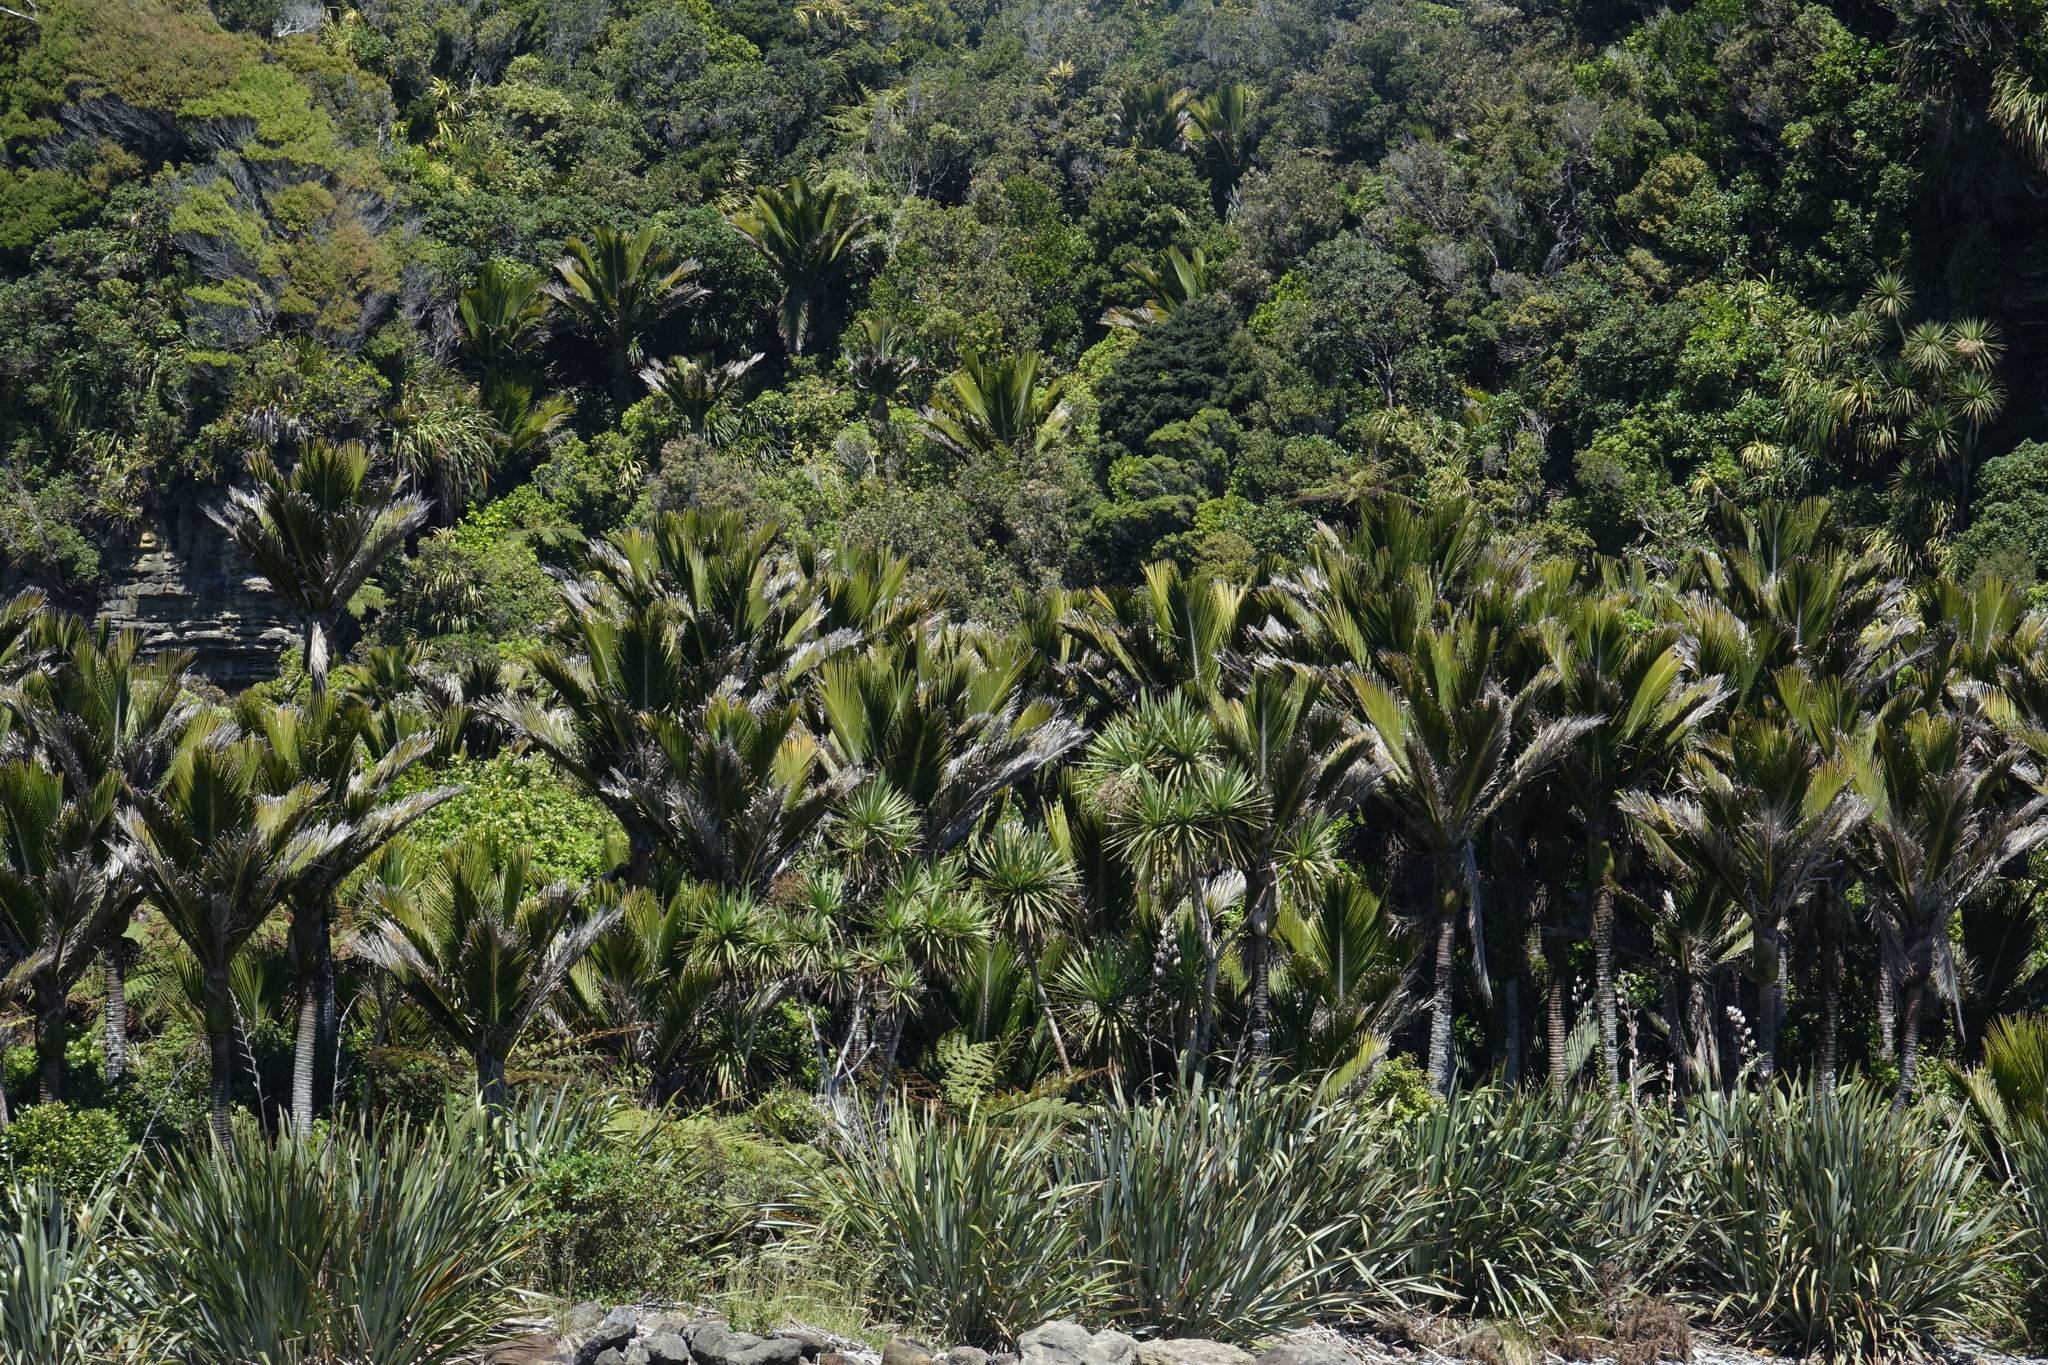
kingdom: Plantae
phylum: Tracheophyta
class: Liliopsida
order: Arecales
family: Arecaceae
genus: Rhopalostylis
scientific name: Rhopalostylis sapida
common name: Feather-duster palm
